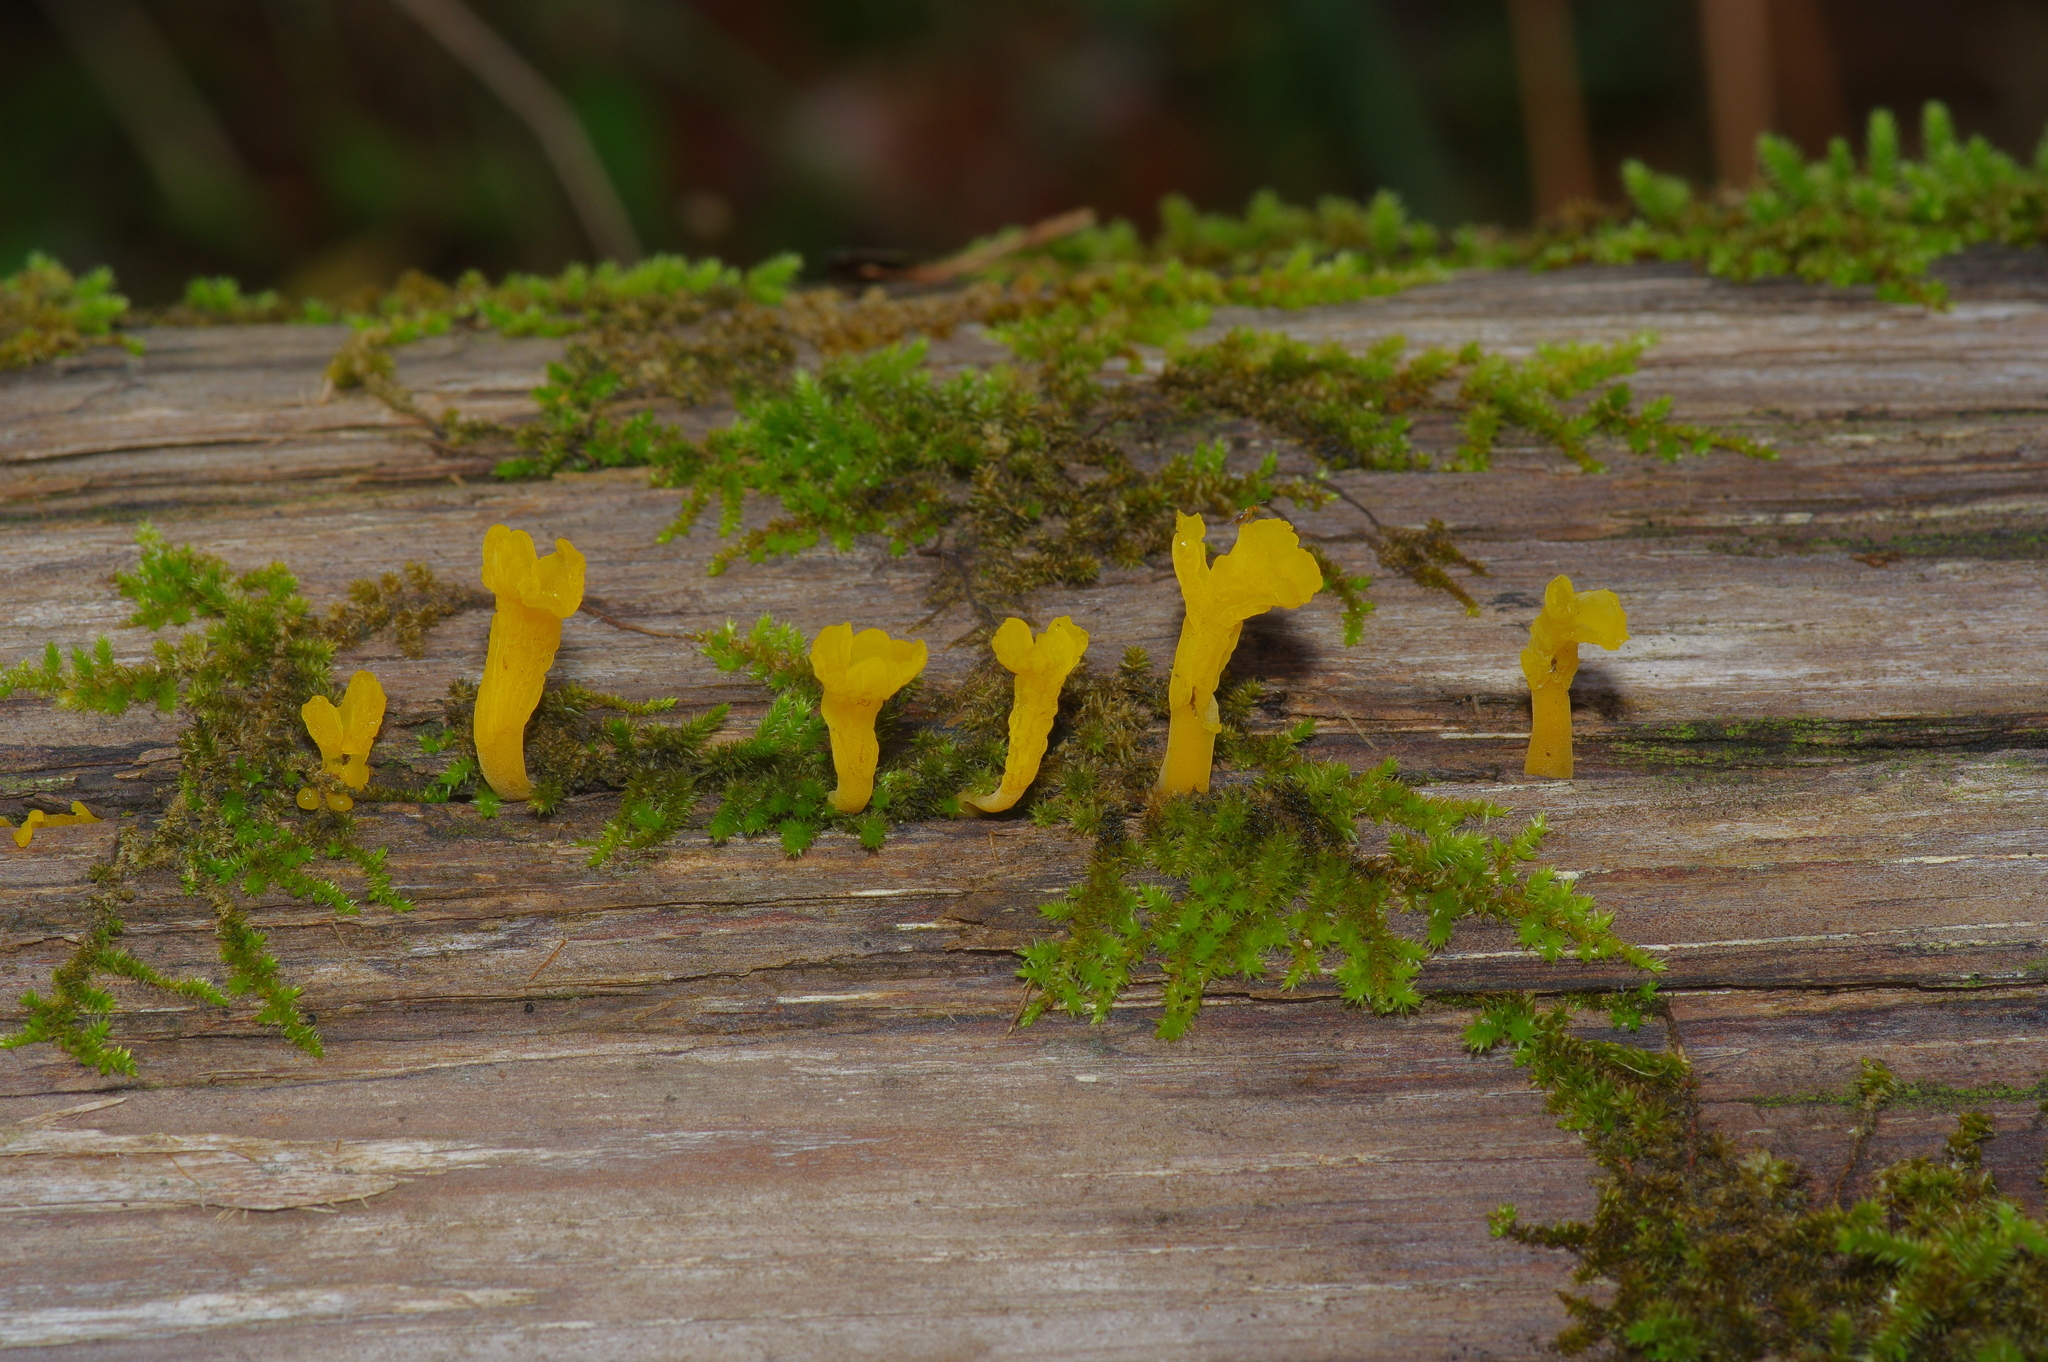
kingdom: Fungi
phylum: Basidiomycota
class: Dacrymycetes
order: Dacrymycetales
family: Dacrymycetaceae
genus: Dacrymyces
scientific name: Dacrymyces spathularius
